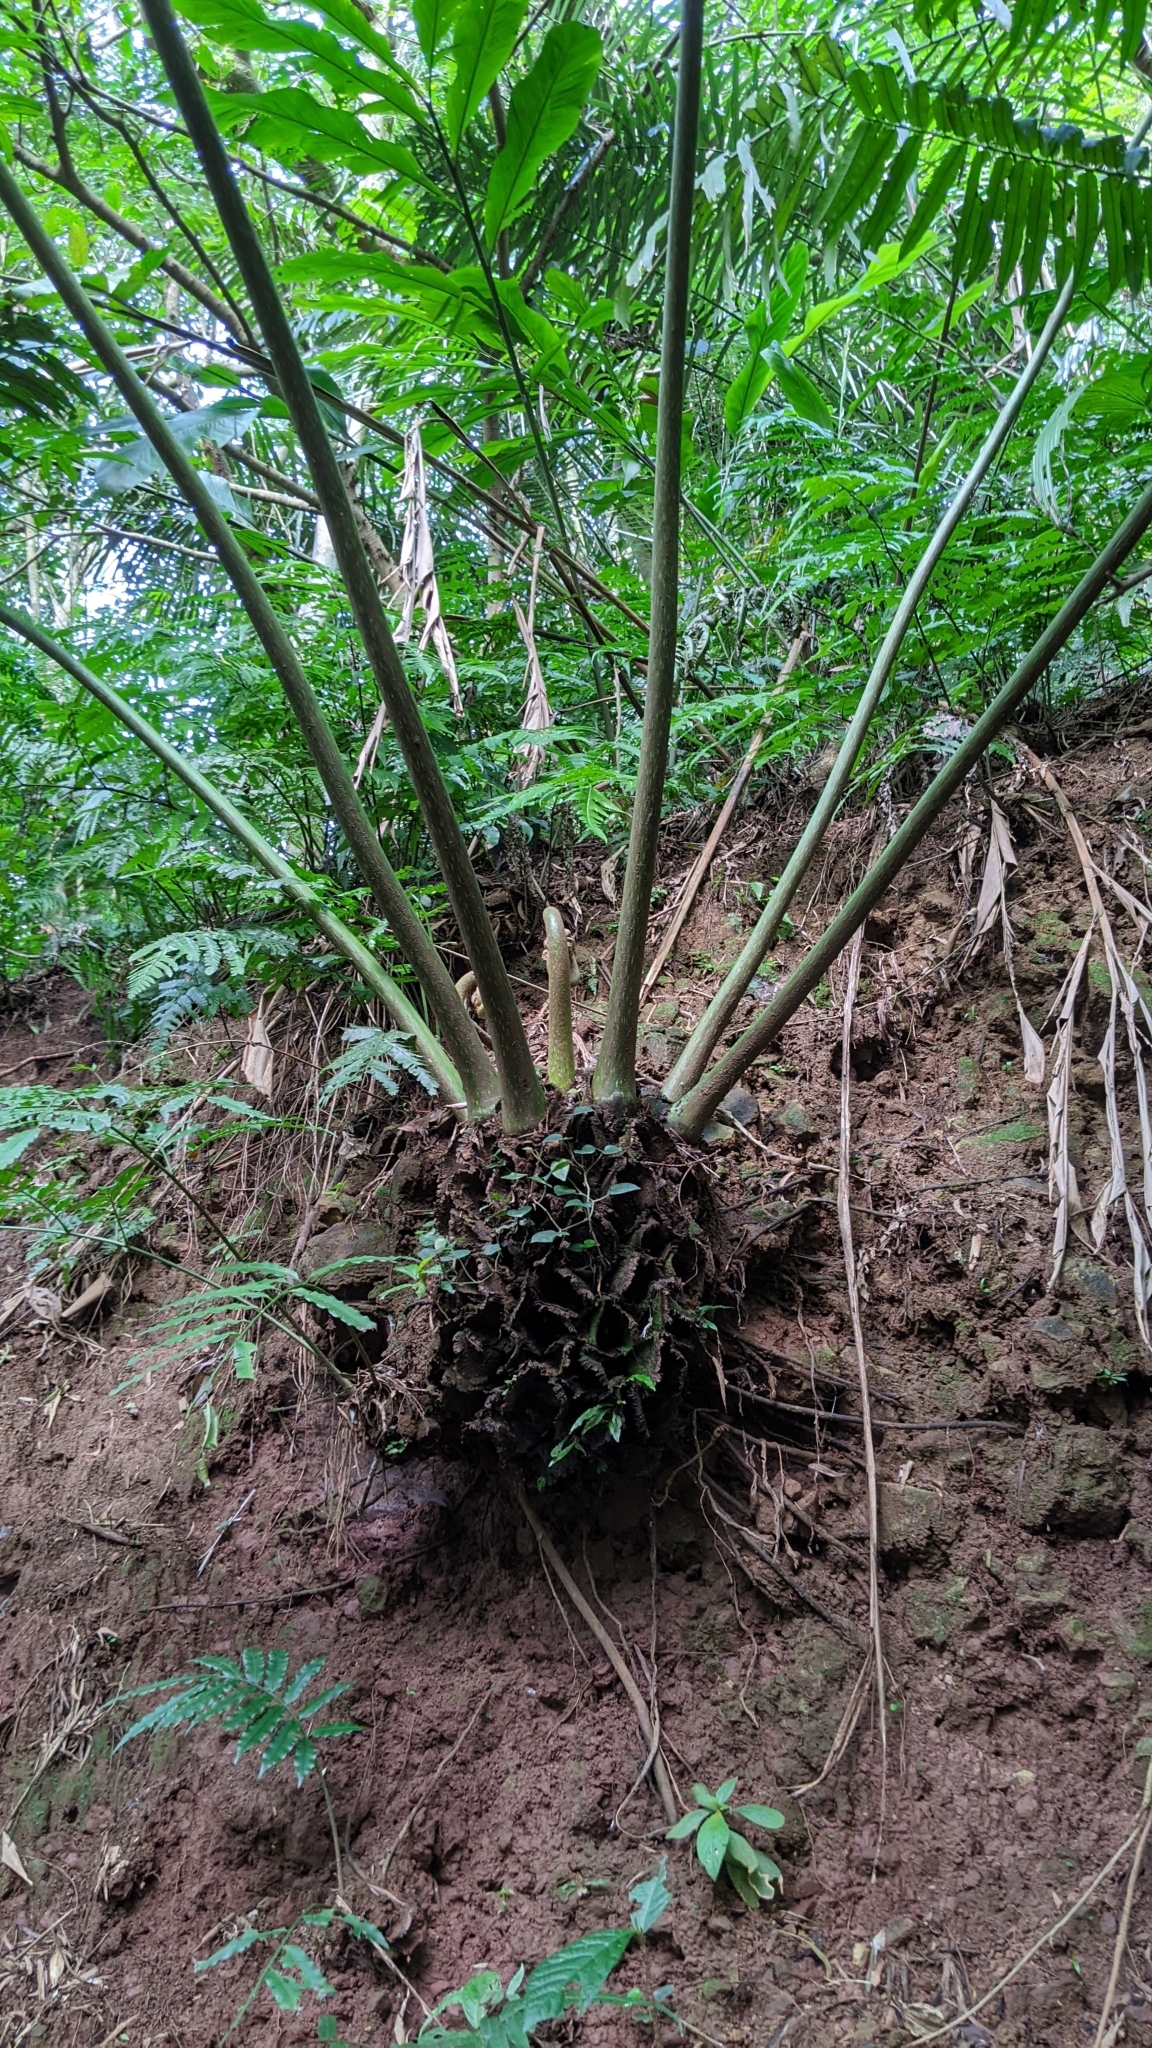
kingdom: Plantae
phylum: Tracheophyta
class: Polypodiopsida
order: Marattiales
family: Marattiaceae
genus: Angiopteris
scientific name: Angiopteris lygodiifolia
